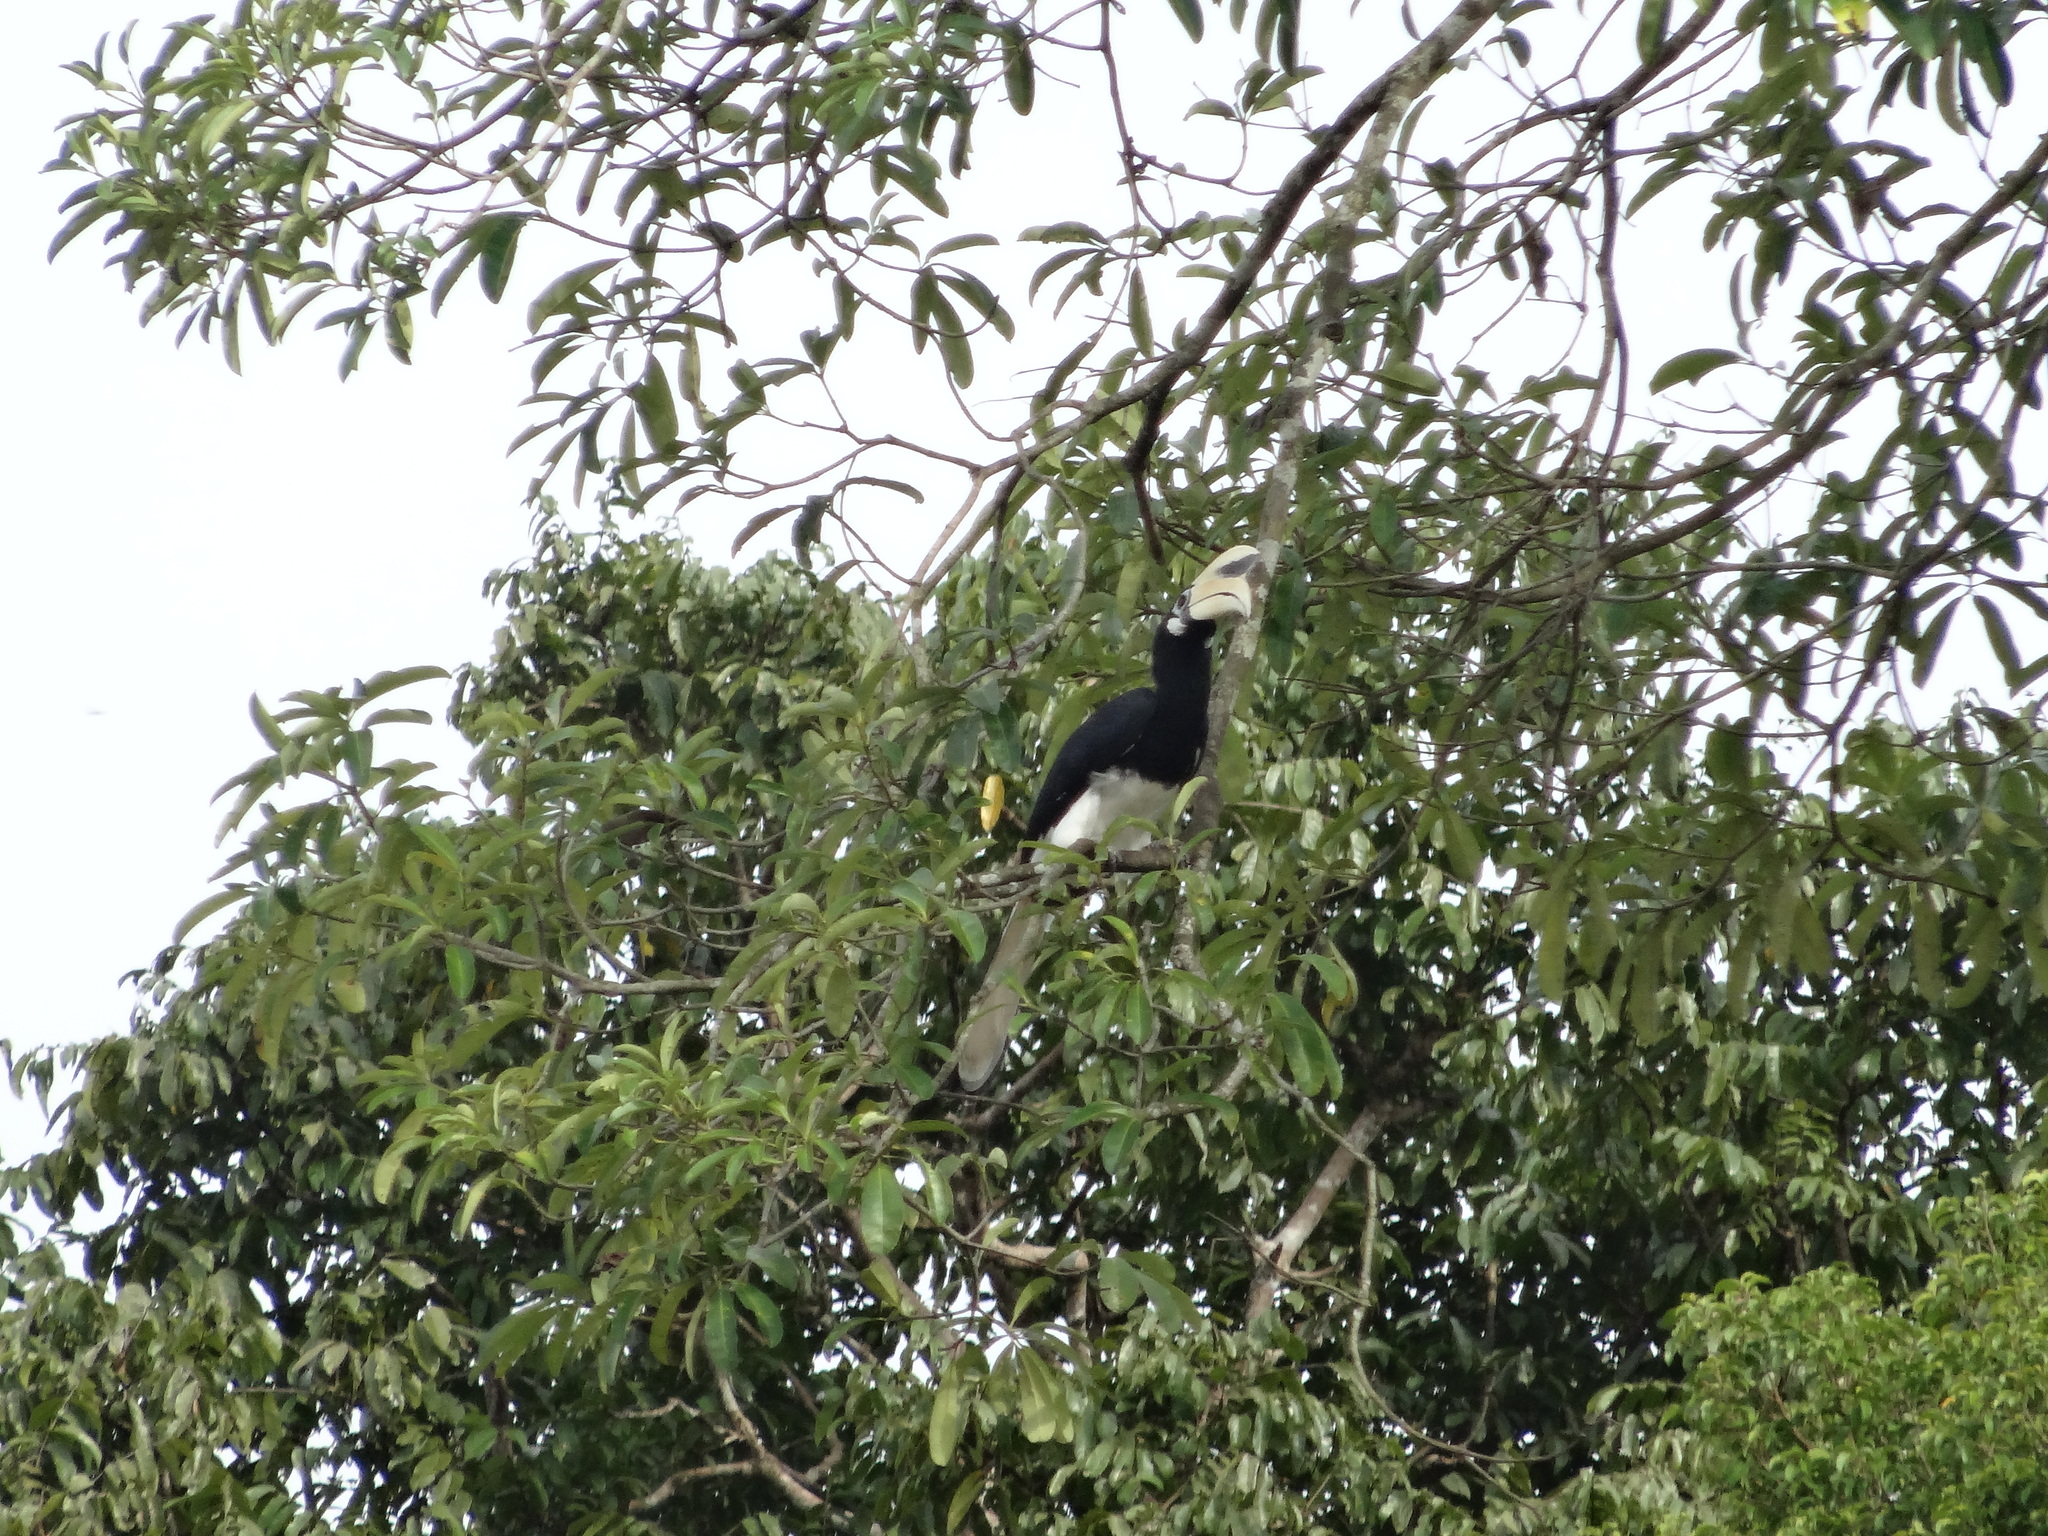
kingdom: Animalia
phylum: Chordata
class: Aves
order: Bucerotiformes
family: Bucerotidae
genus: Anthracoceros
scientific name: Anthracoceros albirostris
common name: Oriental pied-hornbill
